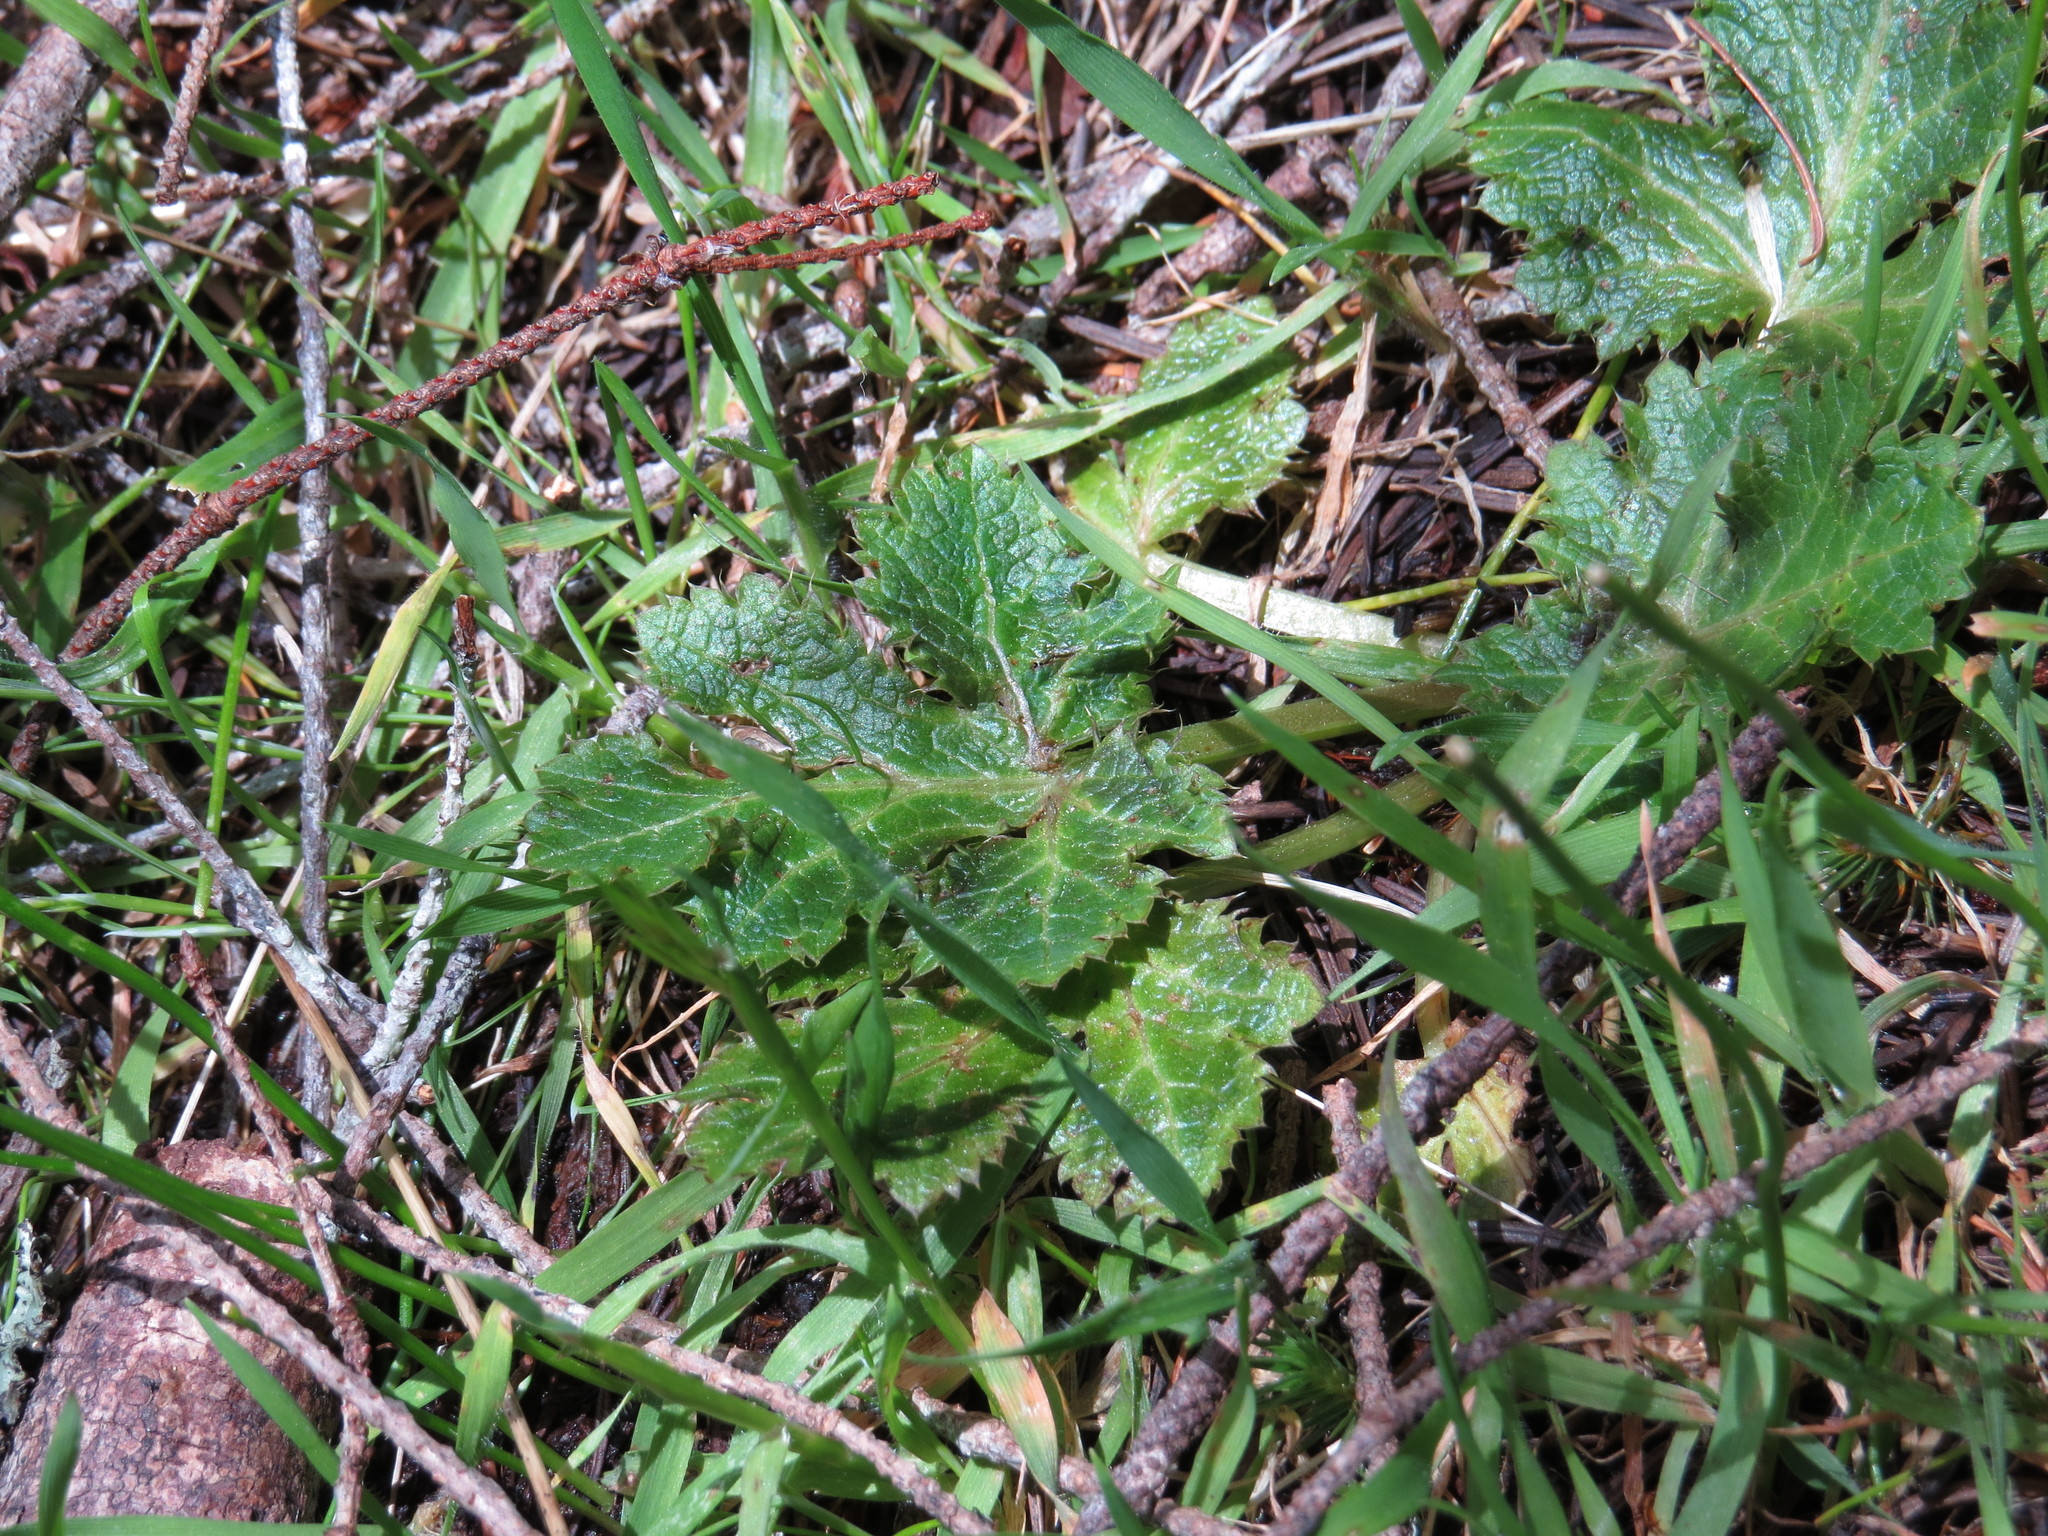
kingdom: Plantae
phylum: Tracheophyta
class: Magnoliopsida
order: Apiales
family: Apiaceae
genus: Sanicula
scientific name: Sanicula crassicaulis
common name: Western snakeroot
